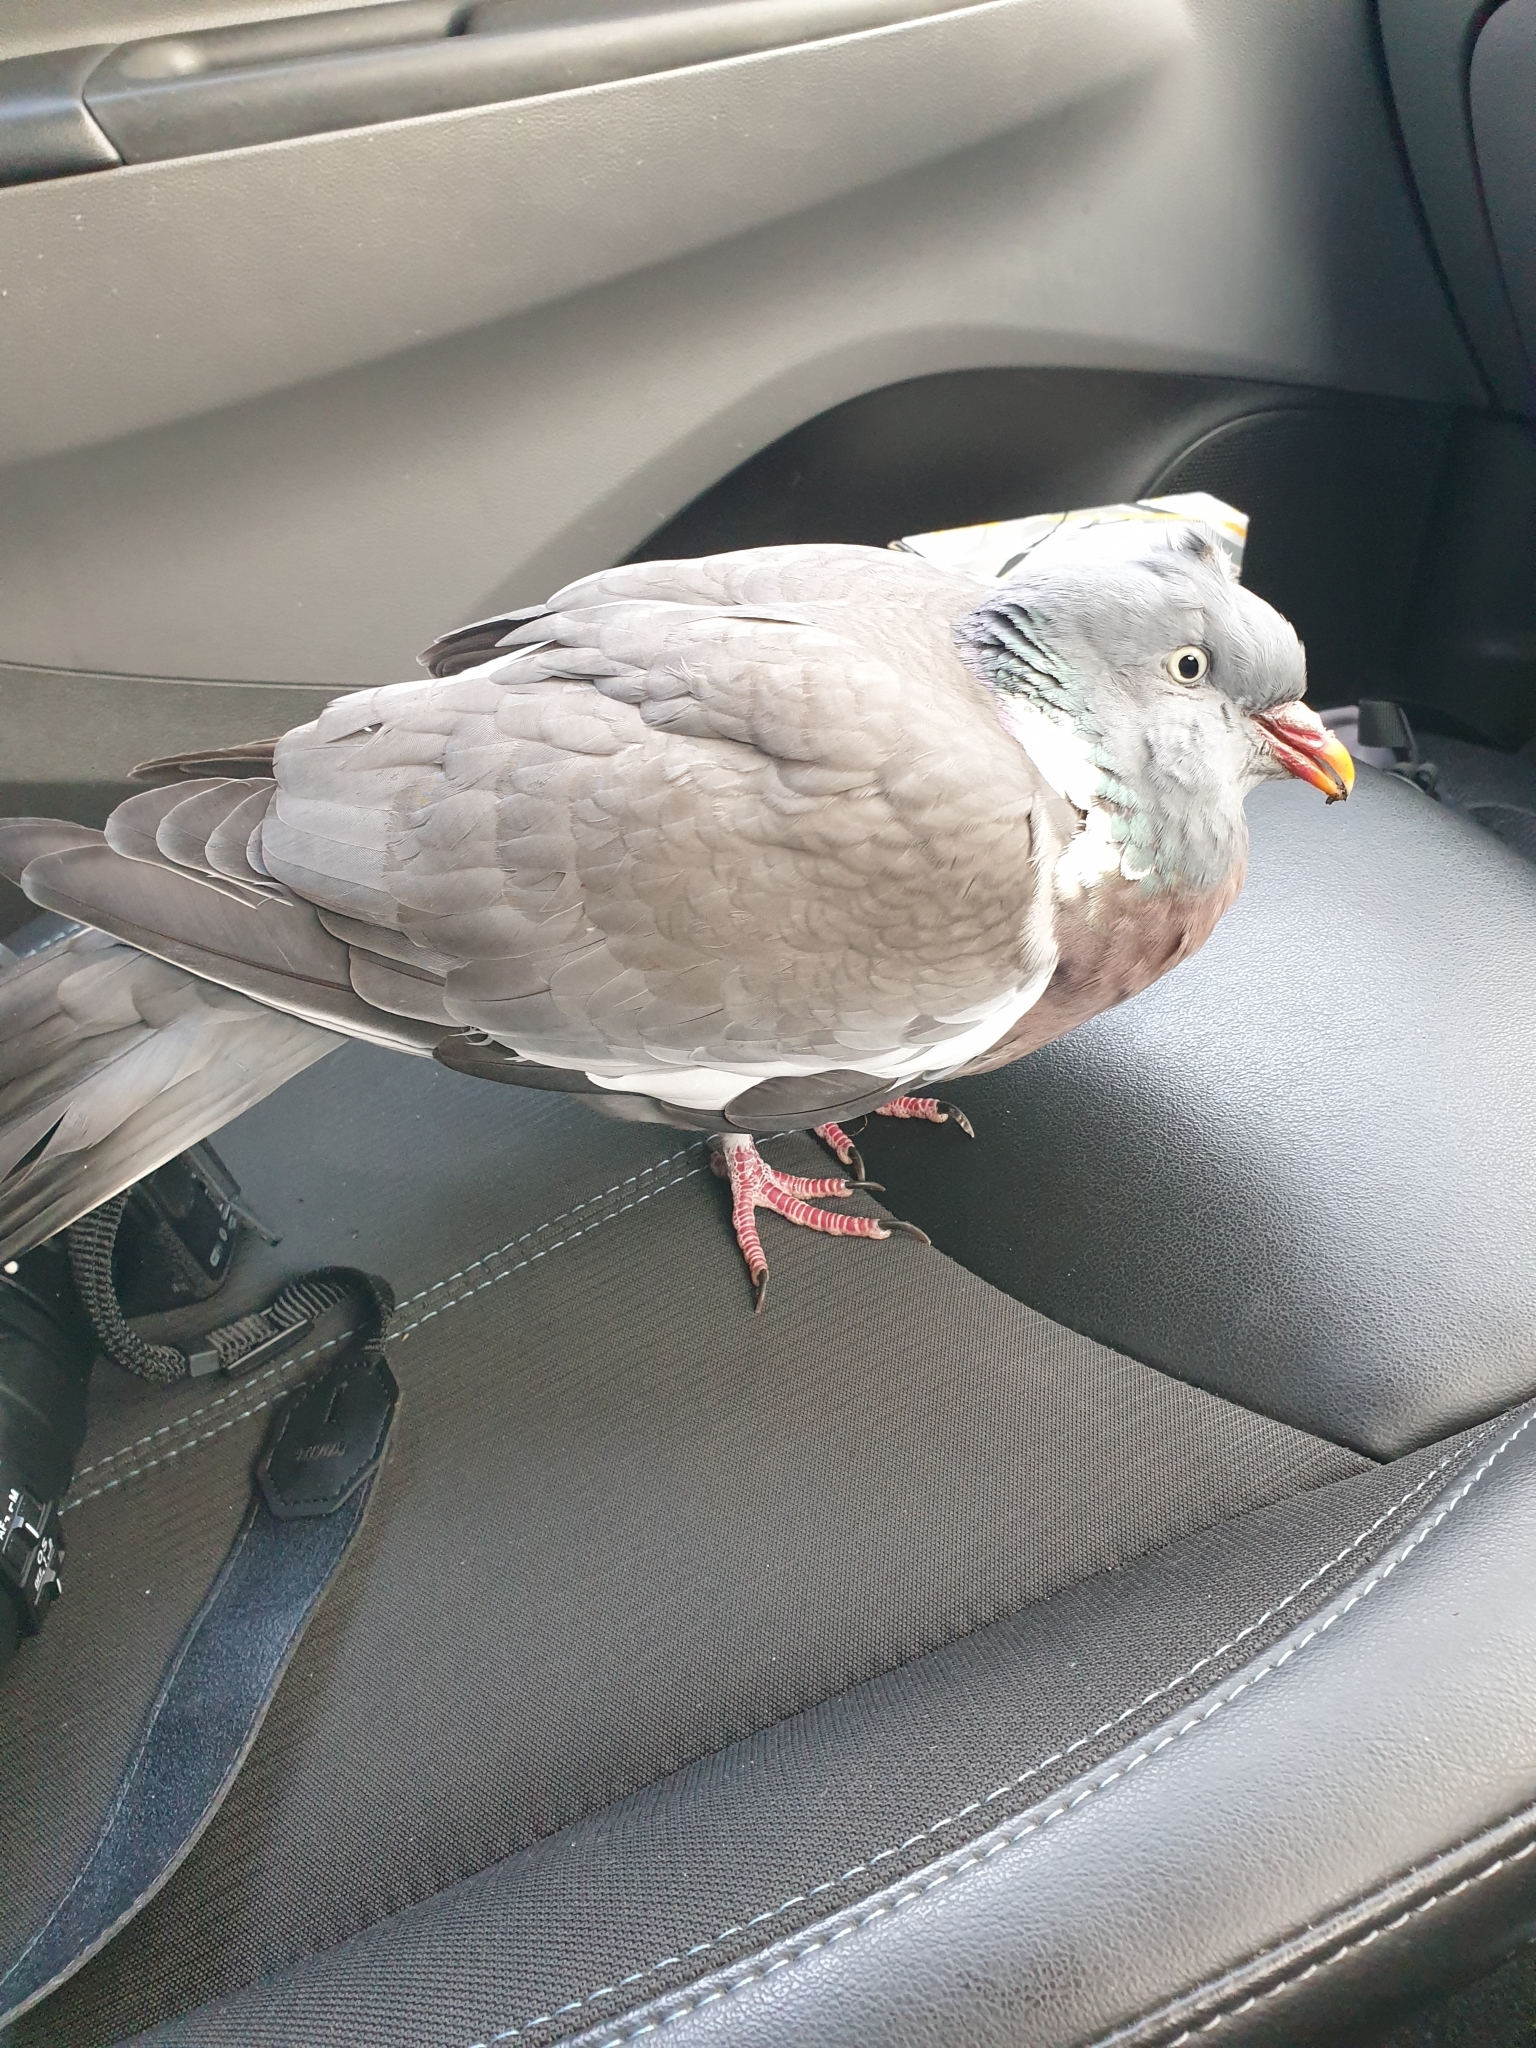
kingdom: Animalia
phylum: Chordata
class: Aves
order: Columbiformes
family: Columbidae
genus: Columba
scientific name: Columba palumbus
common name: Common wood pigeon
